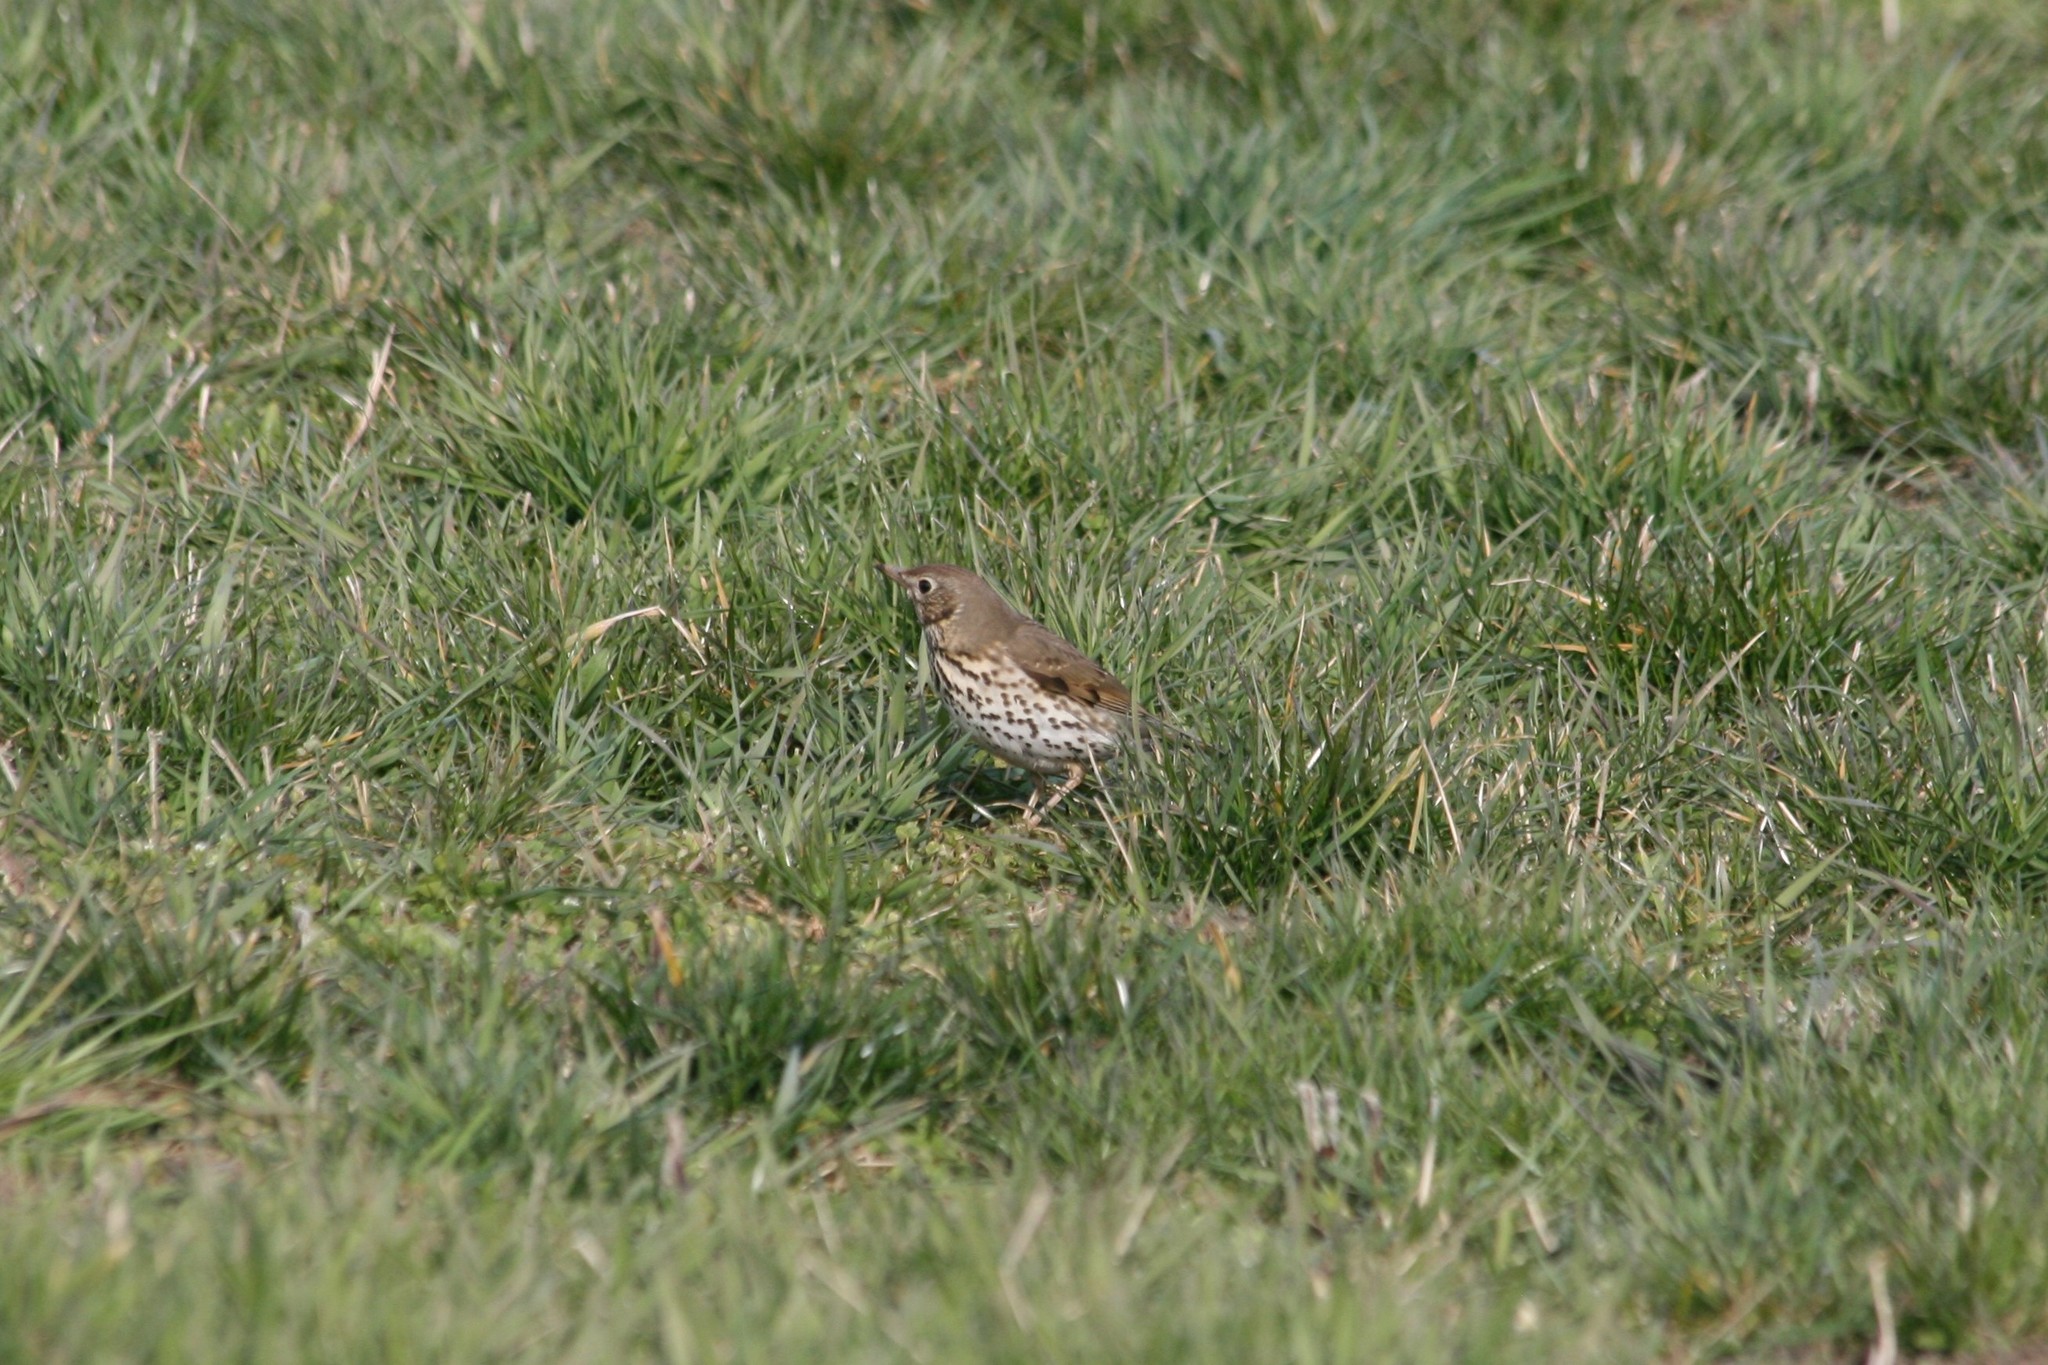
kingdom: Animalia
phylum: Chordata
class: Aves
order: Passeriformes
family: Turdidae
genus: Turdus
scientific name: Turdus philomelos
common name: Song thrush
